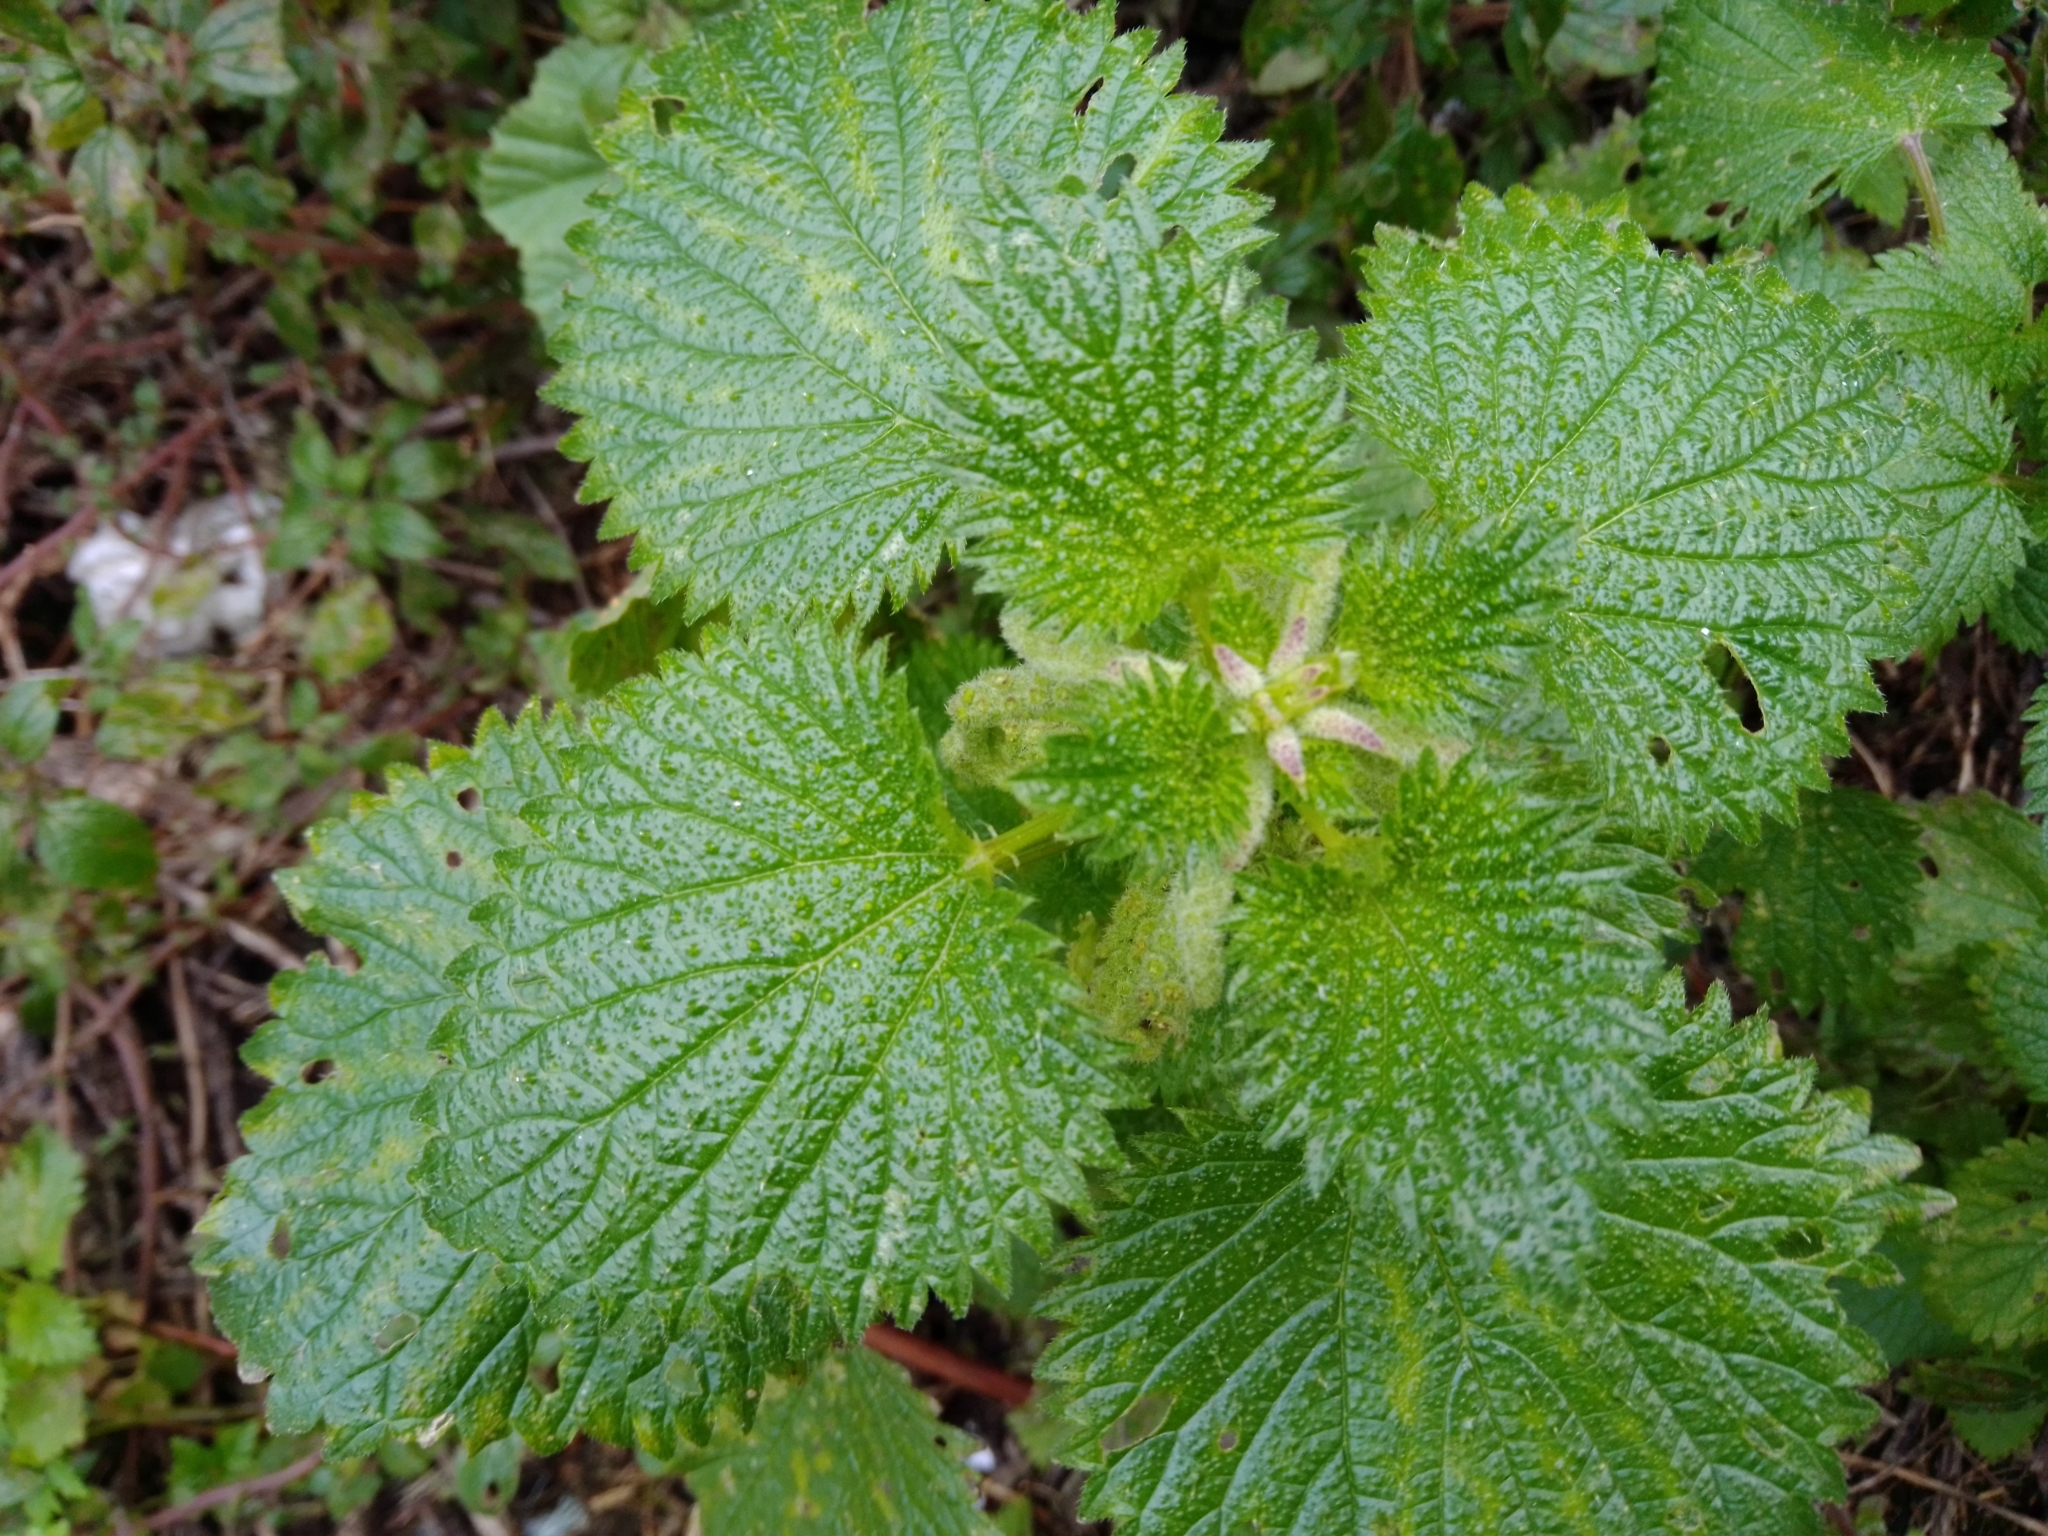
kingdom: Plantae
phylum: Tracheophyta
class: Magnoliopsida
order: Rosales
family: Urticaceae
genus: Urtica
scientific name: Urtica membranacea
